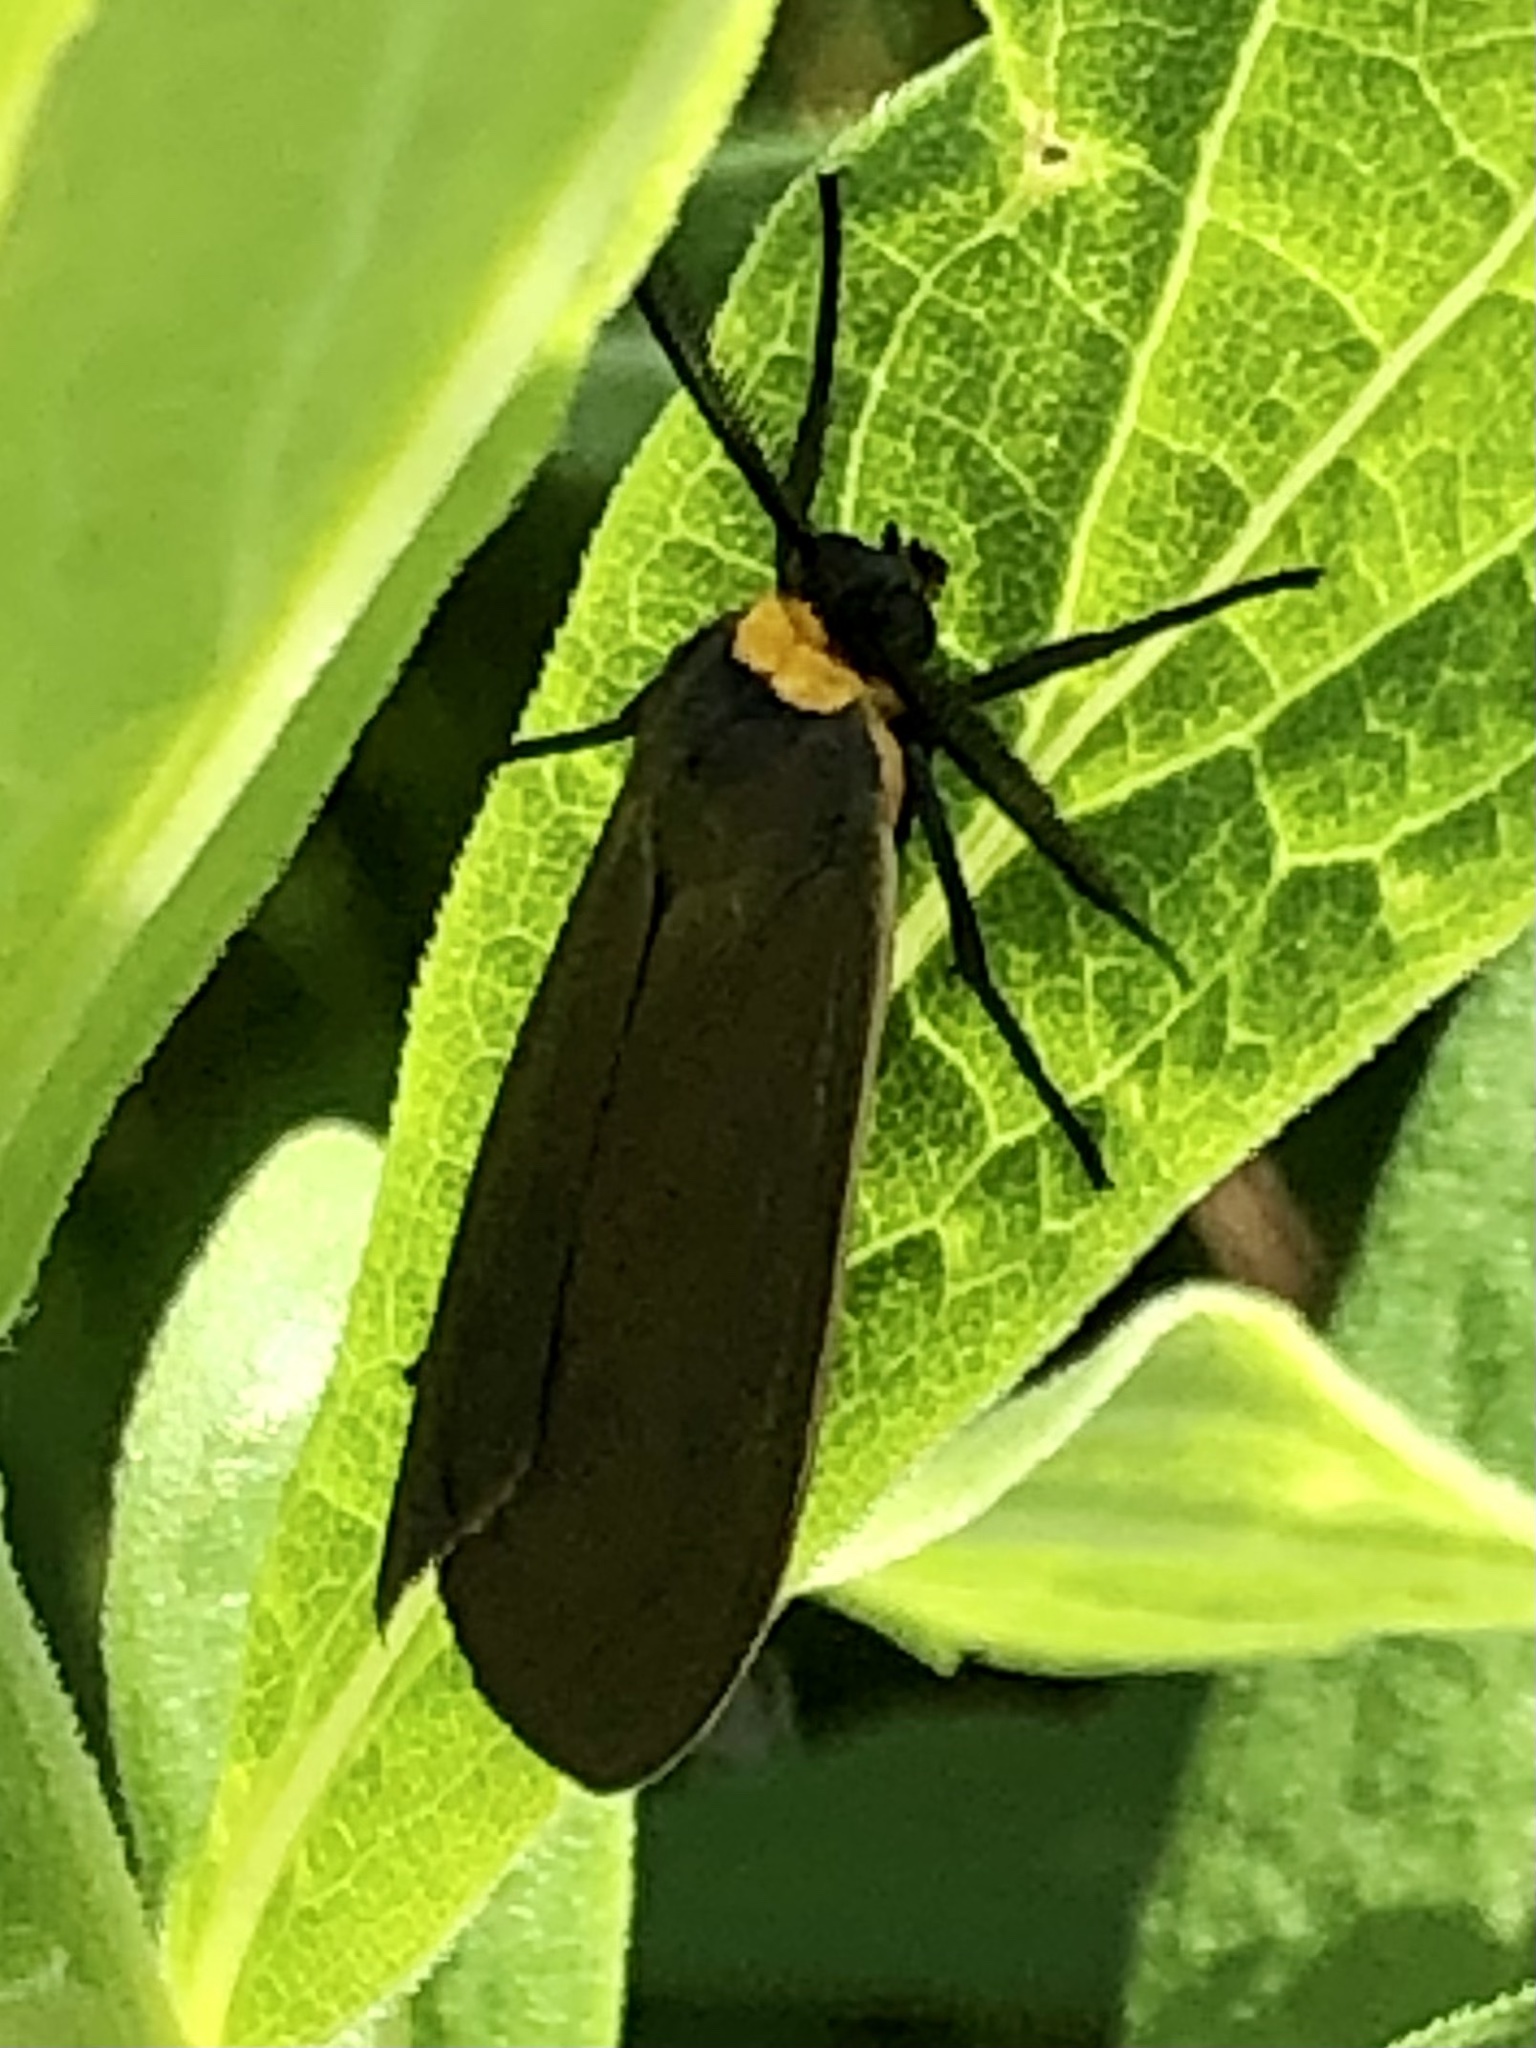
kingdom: Animalia
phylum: Arthropoda
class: Insecta
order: Lepidoptera
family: Erebidae
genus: Cisseps
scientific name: Cisseps fulvicollis
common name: Yellow-collared scape moth
